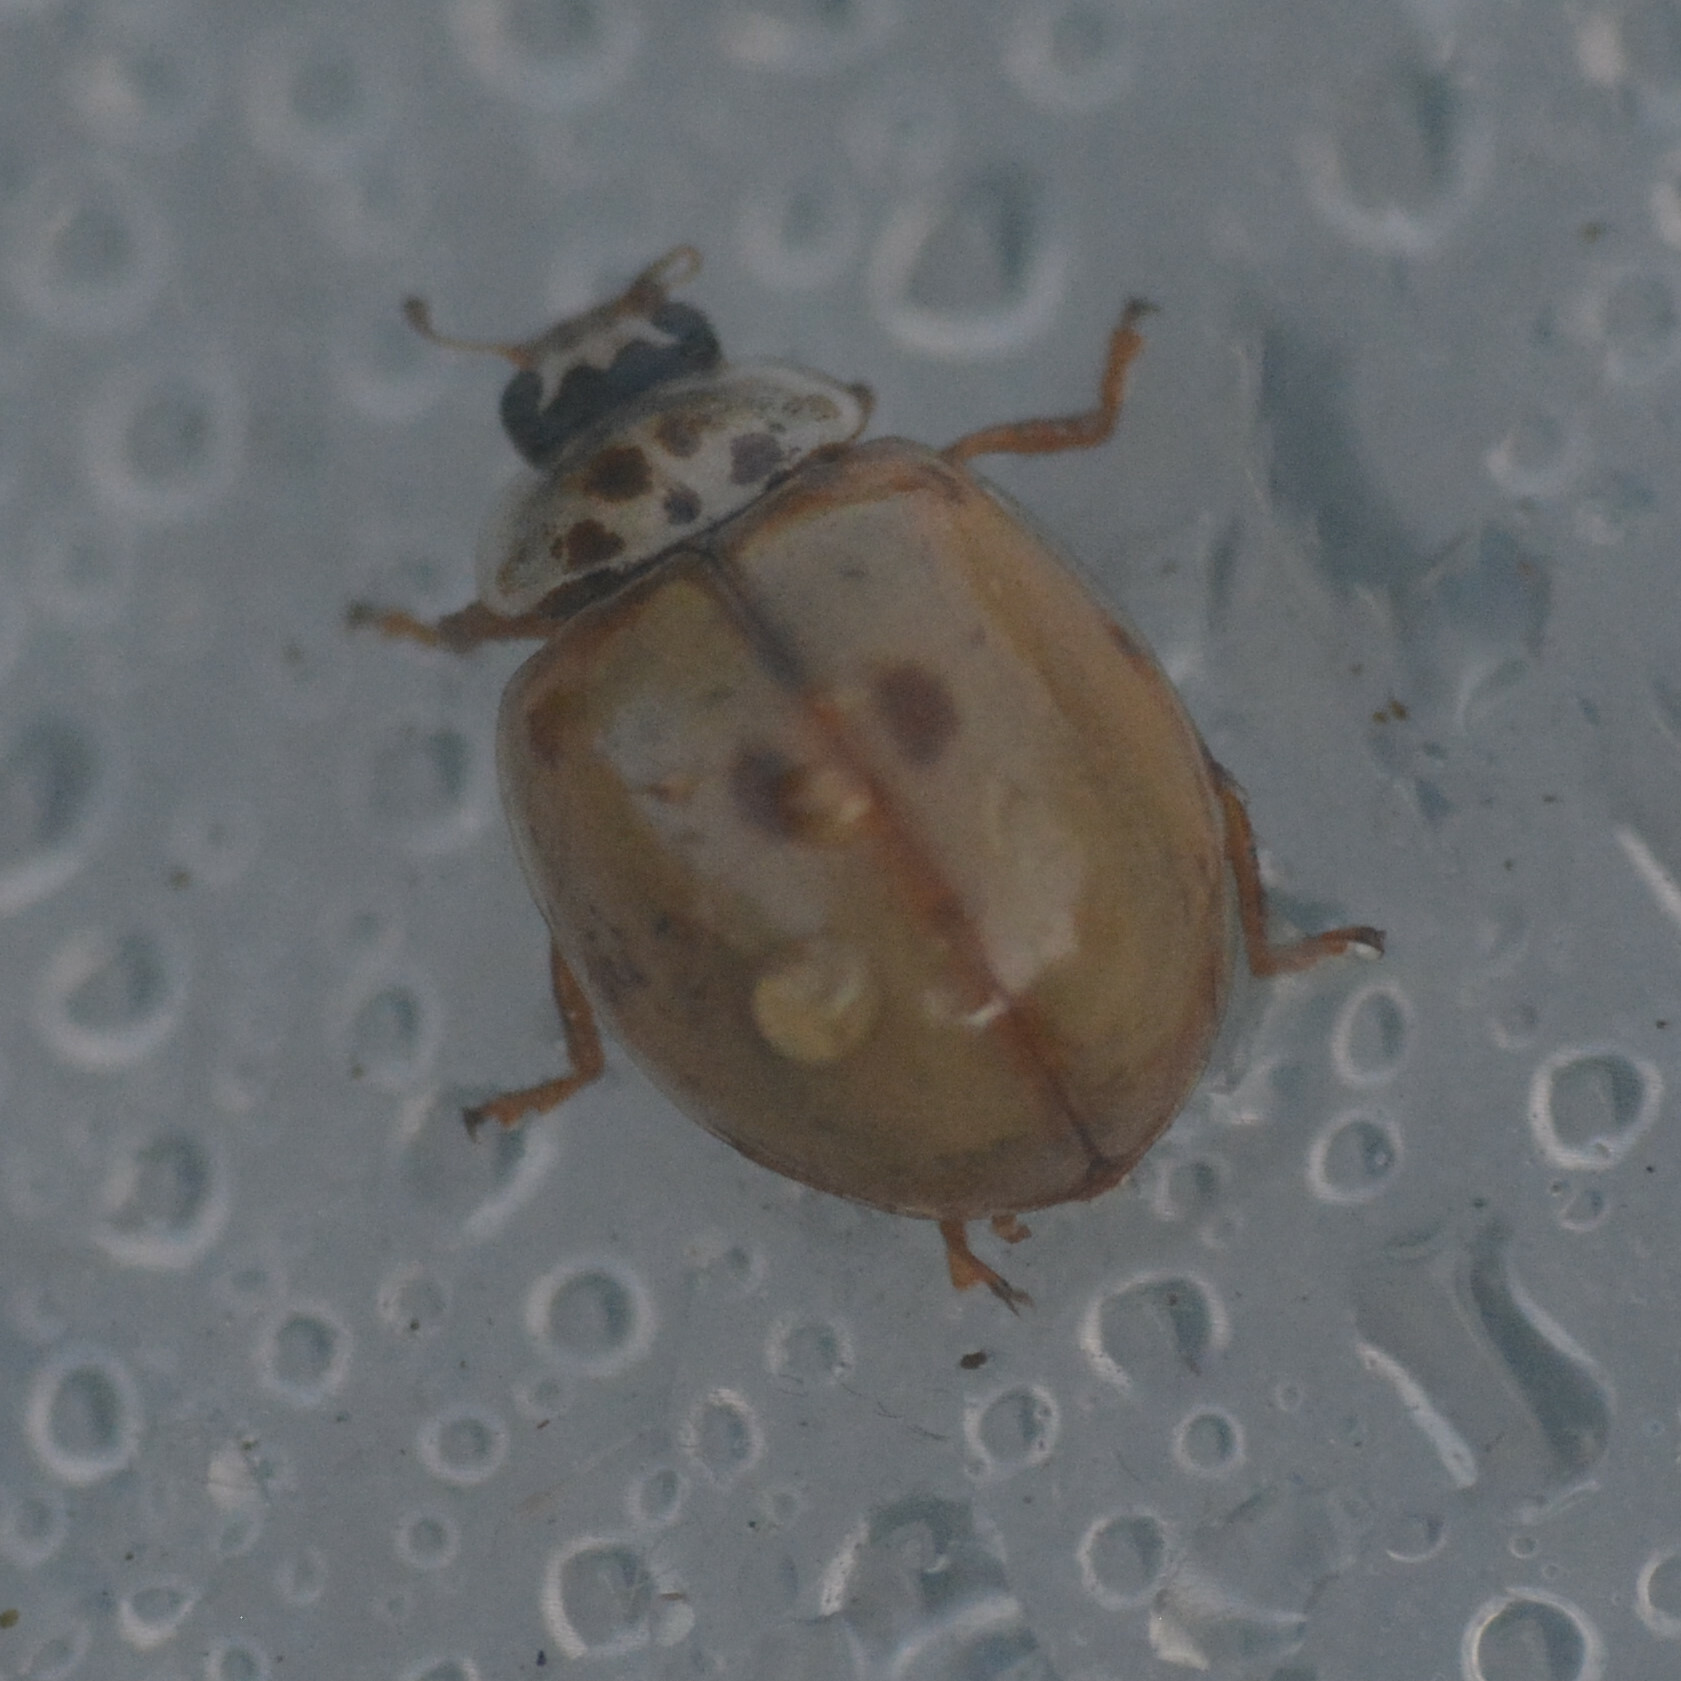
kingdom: Animalia
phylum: Arthropoda
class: Insecta
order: Coleoptera
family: Coccinellidae
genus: Adalia
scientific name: Adalia decempunctata
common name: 10-spot ladybird
